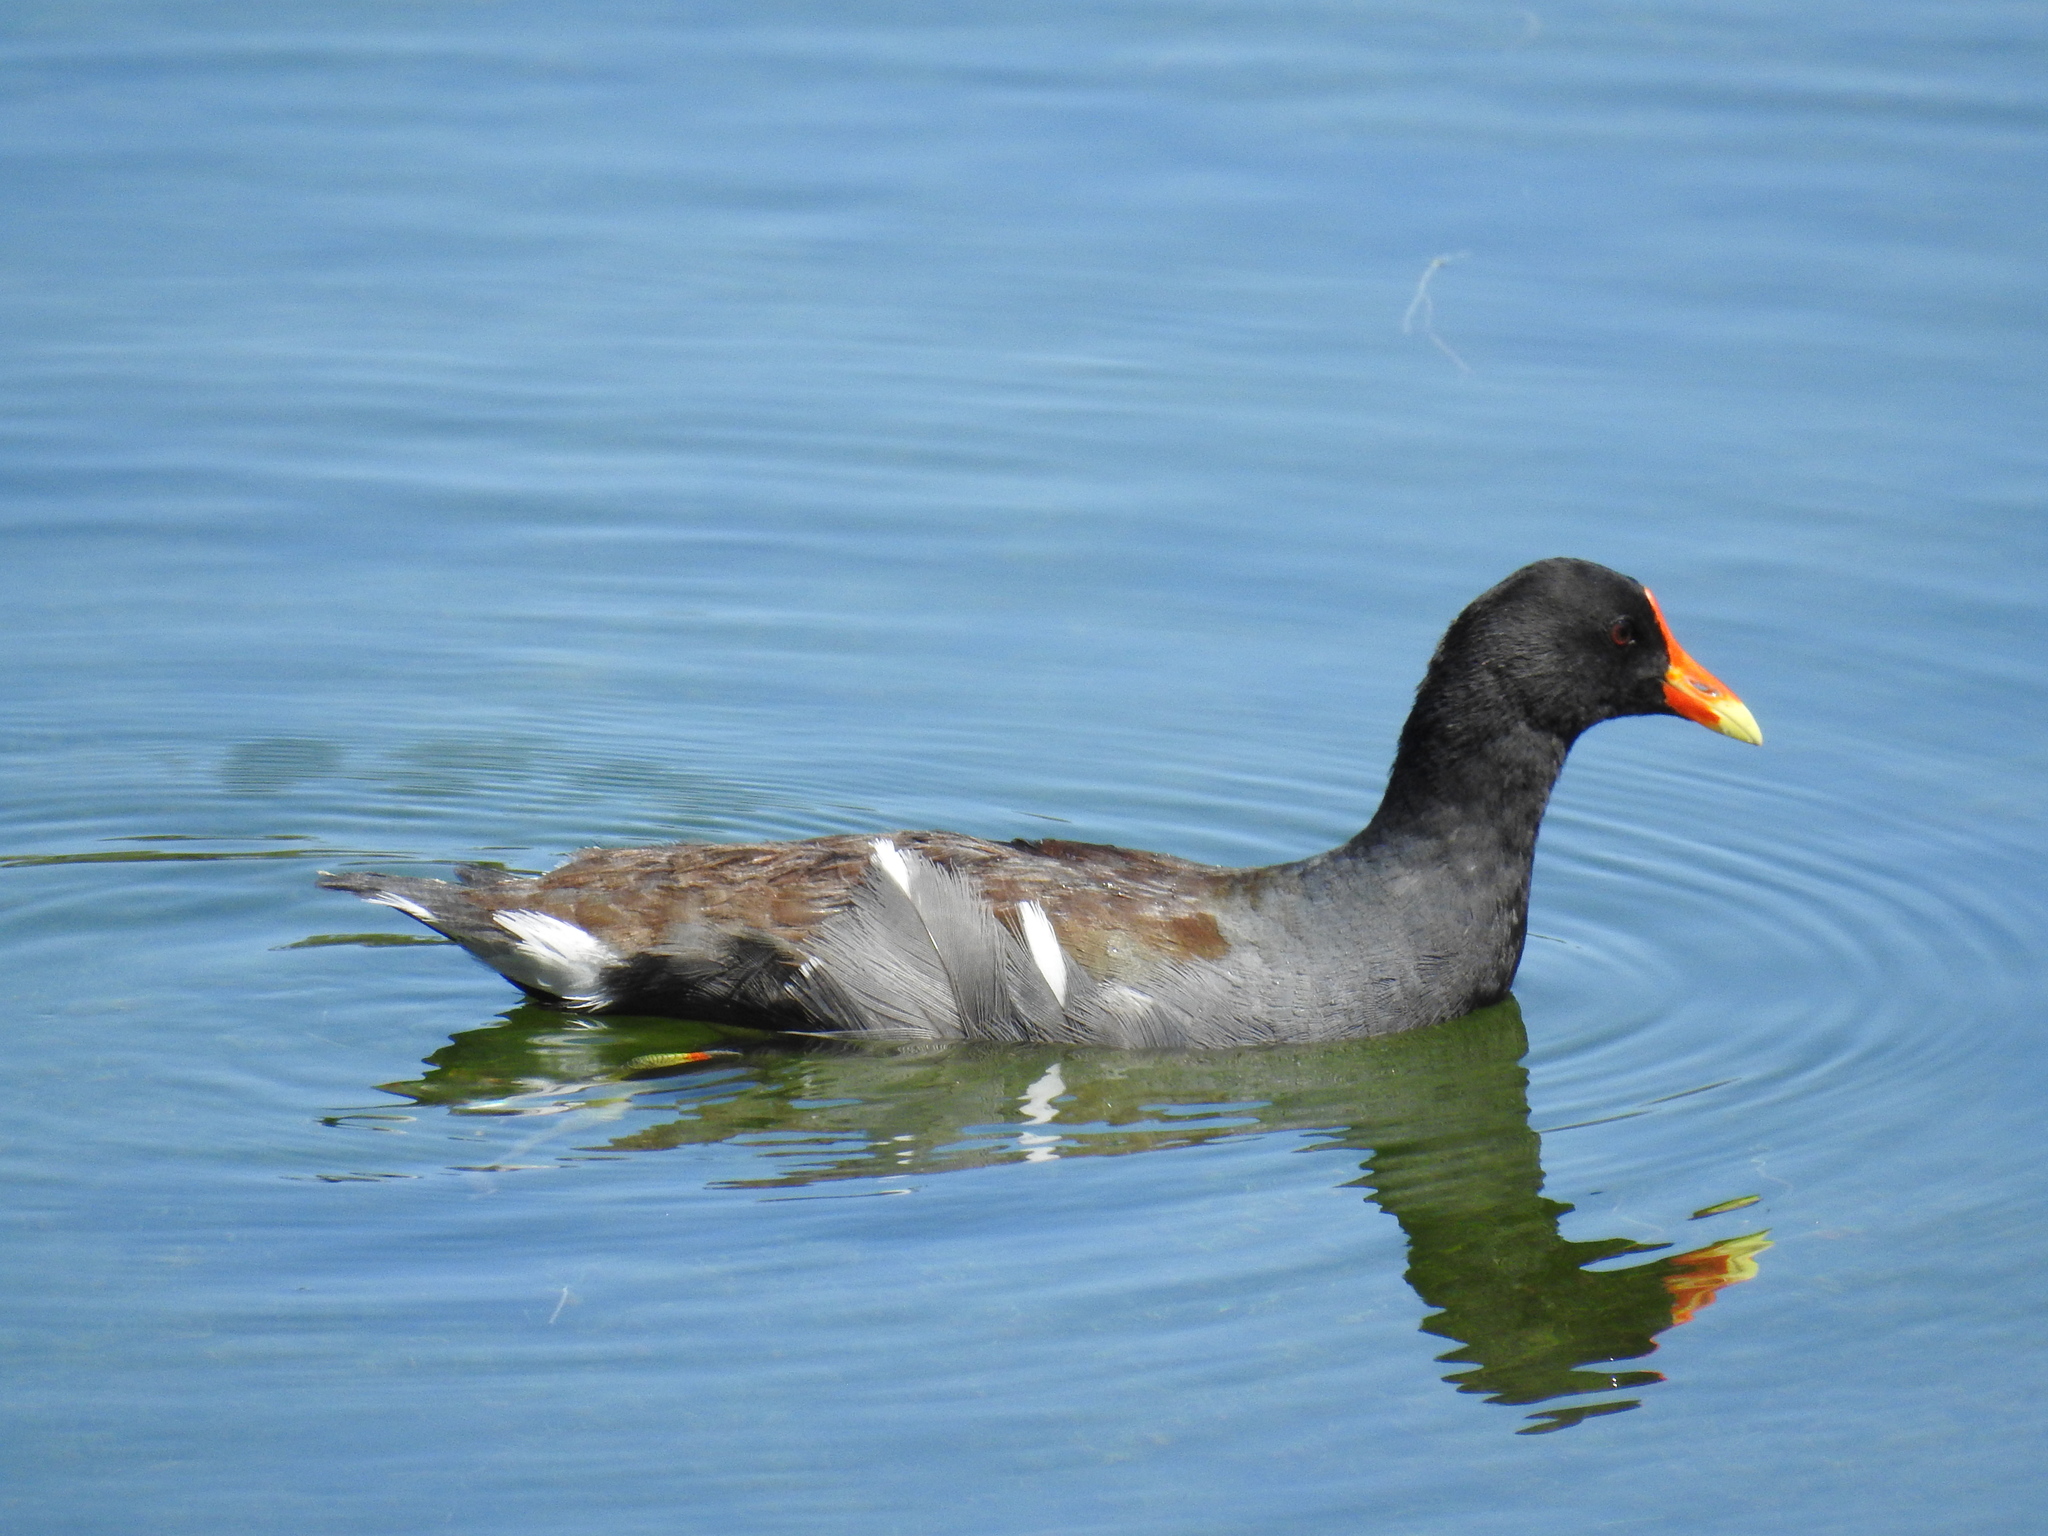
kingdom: Animalia
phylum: Chordata
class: Aves
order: Gruiformes
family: Rallidae
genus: Gallinula
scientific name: Gallinula chloropus
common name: Common moorhen
